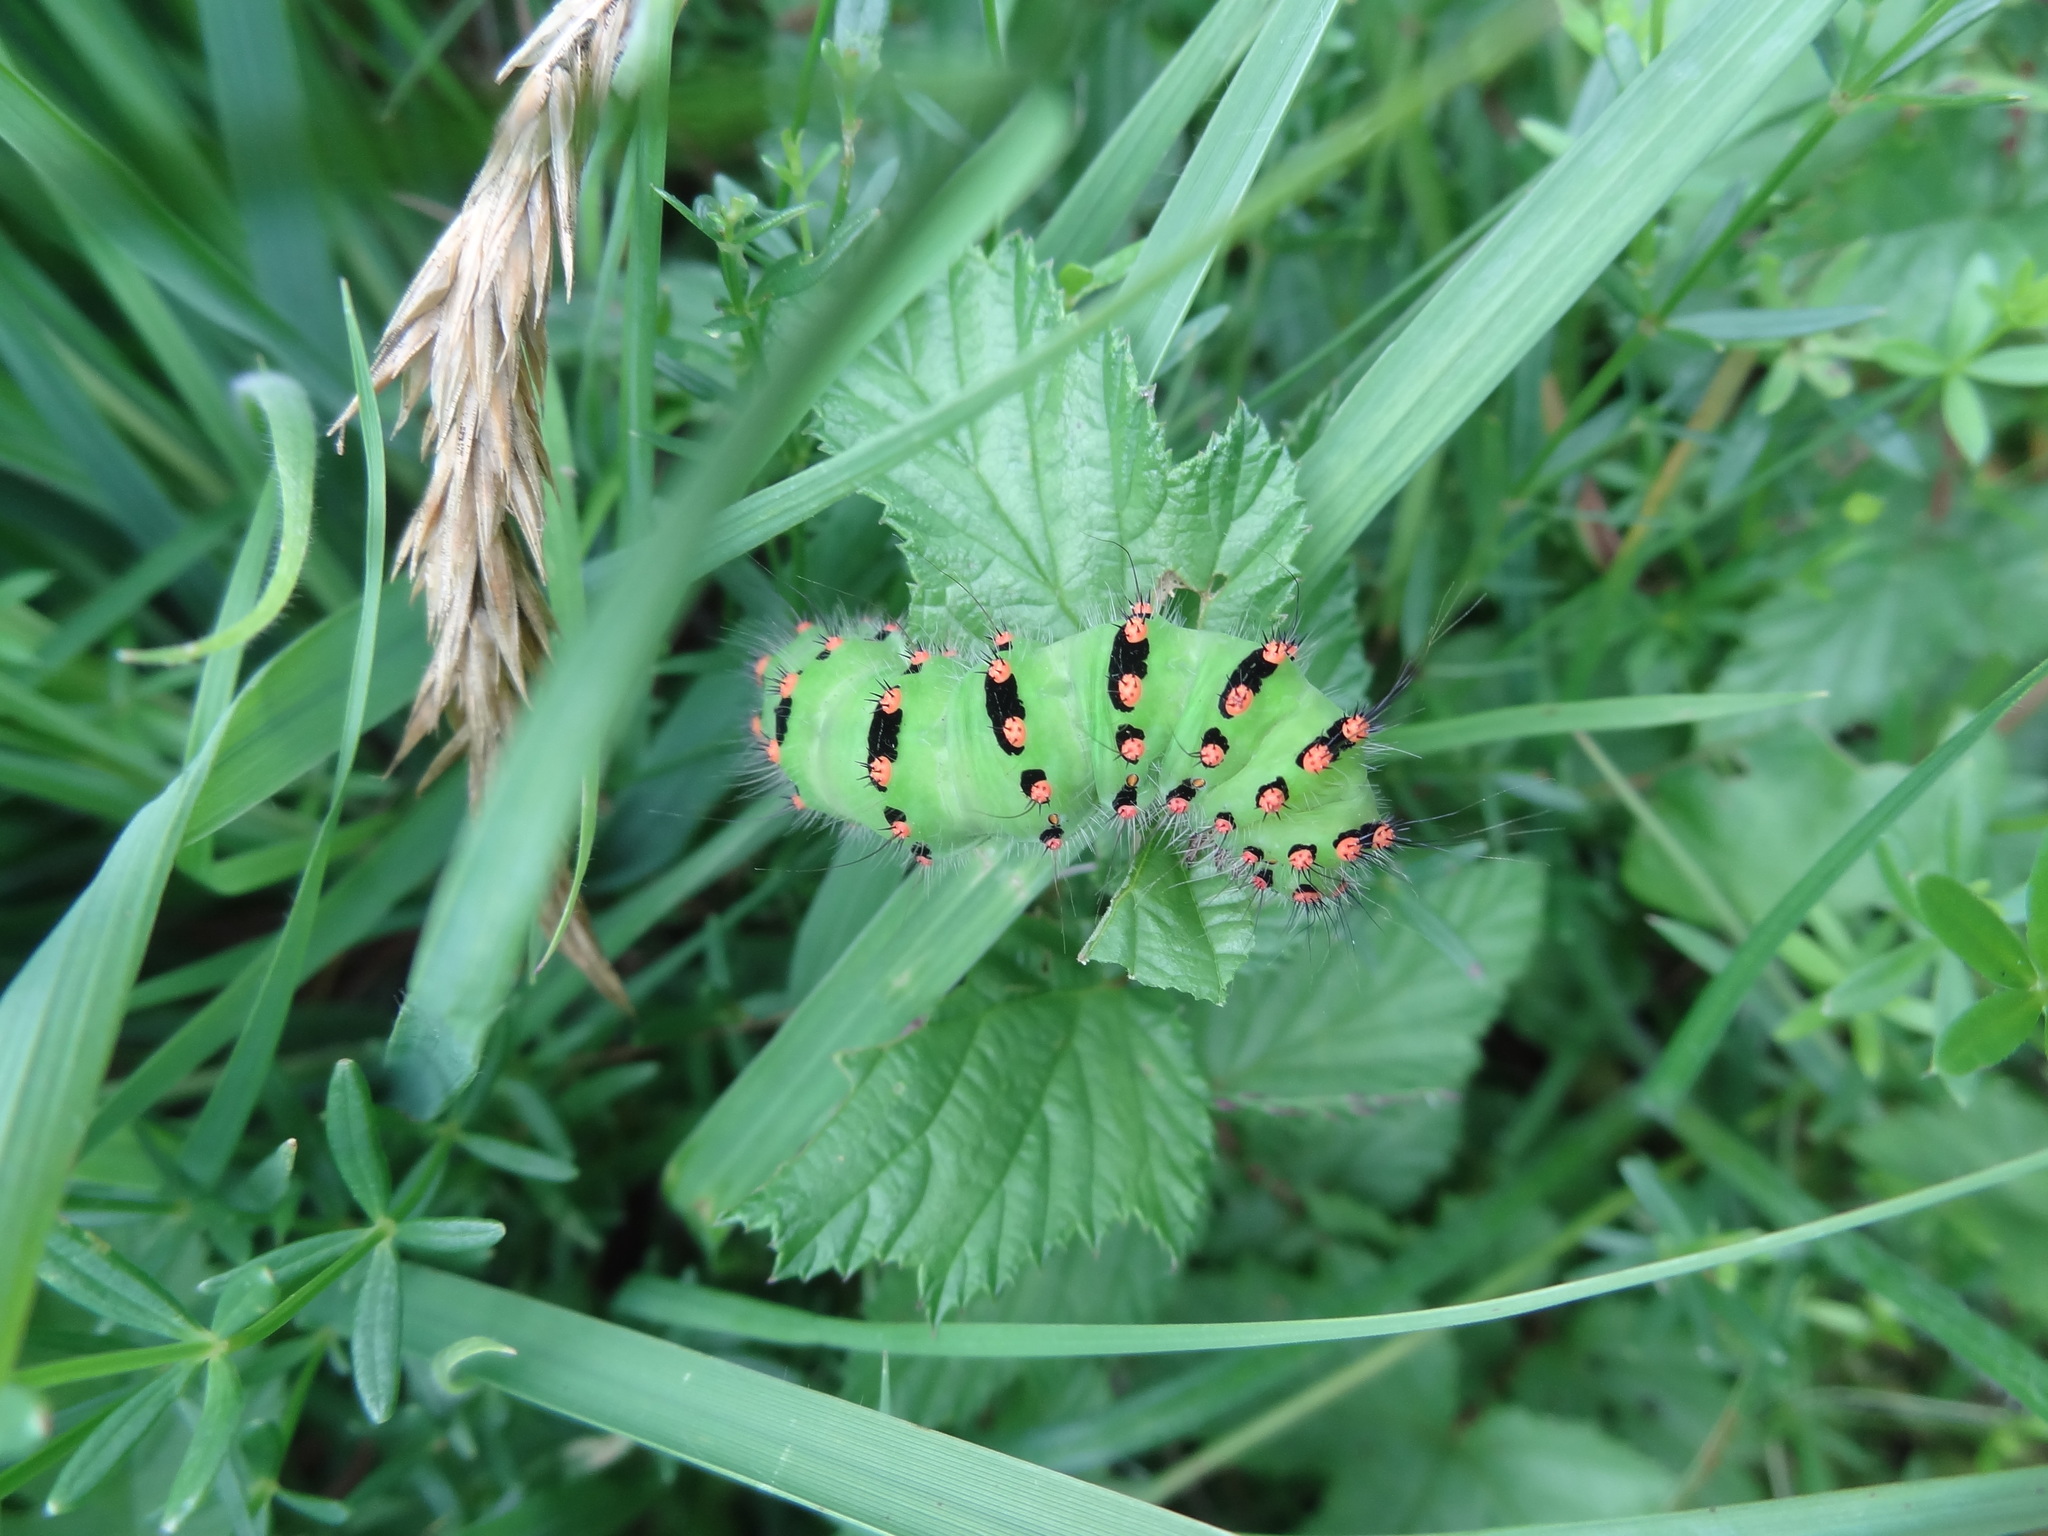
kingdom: Animalia
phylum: Arthropoda
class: Insecta
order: Lepidoptera
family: Saturniidae
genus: Saturnia
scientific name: Saturnia pavonia
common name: Emperor moth
